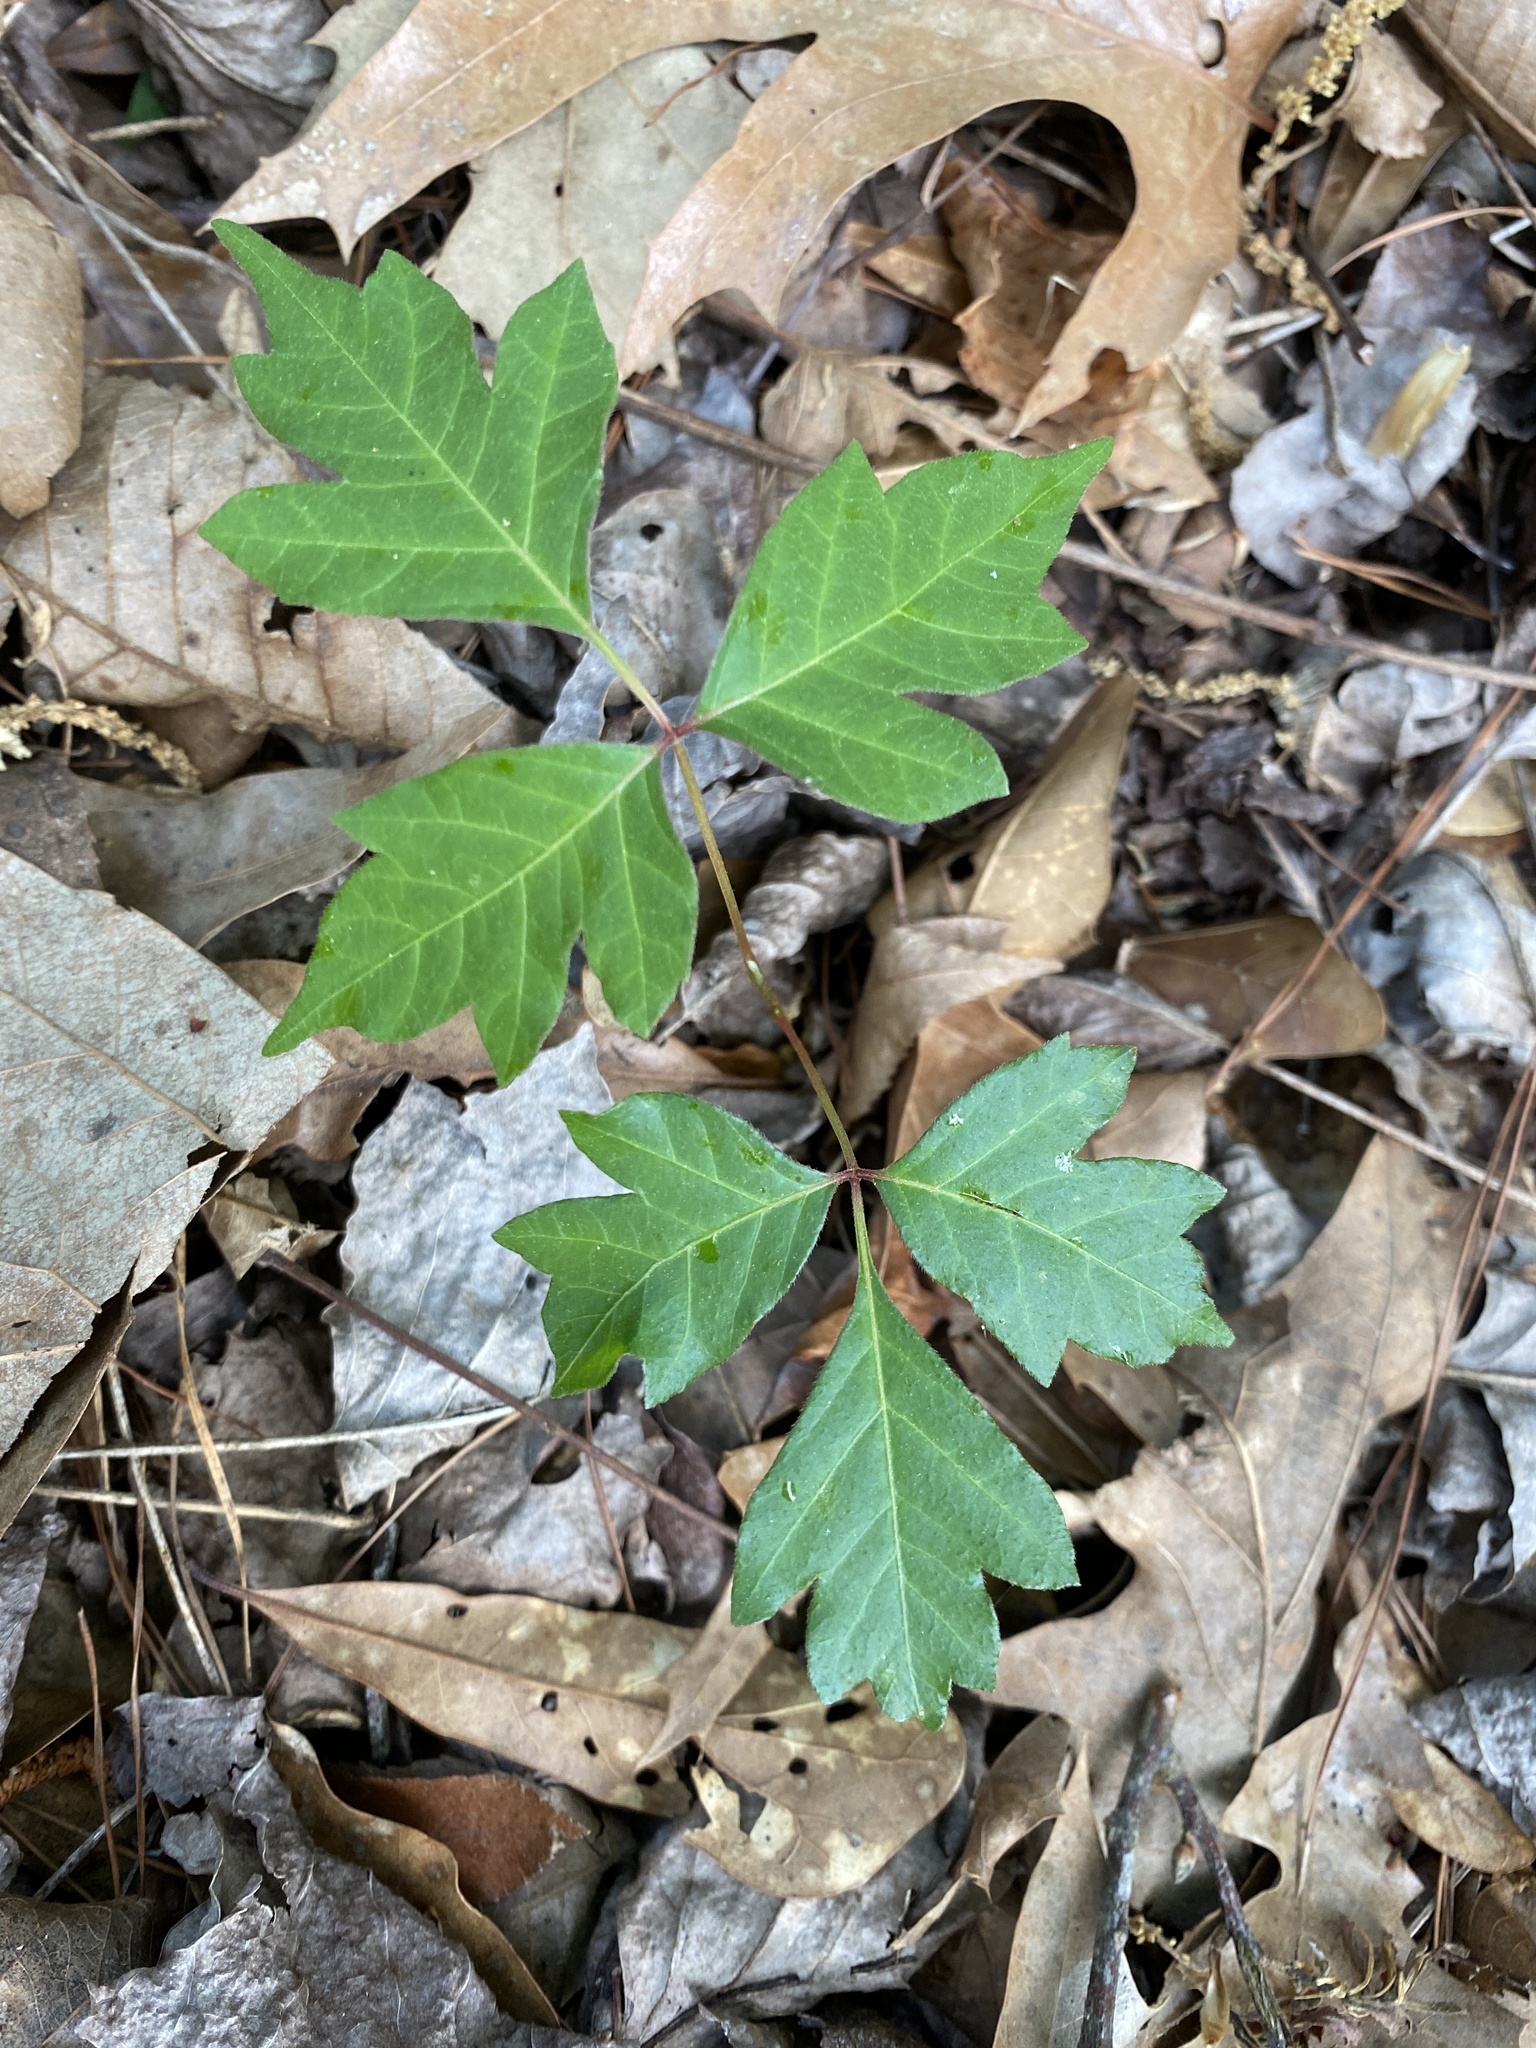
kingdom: Plantae
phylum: Tracheophyta
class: Magnoliopsida
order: Sapindales
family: Anacardiaceae
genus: Toxicodendron
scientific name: Toxicodendron radicans
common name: Poison ivy
